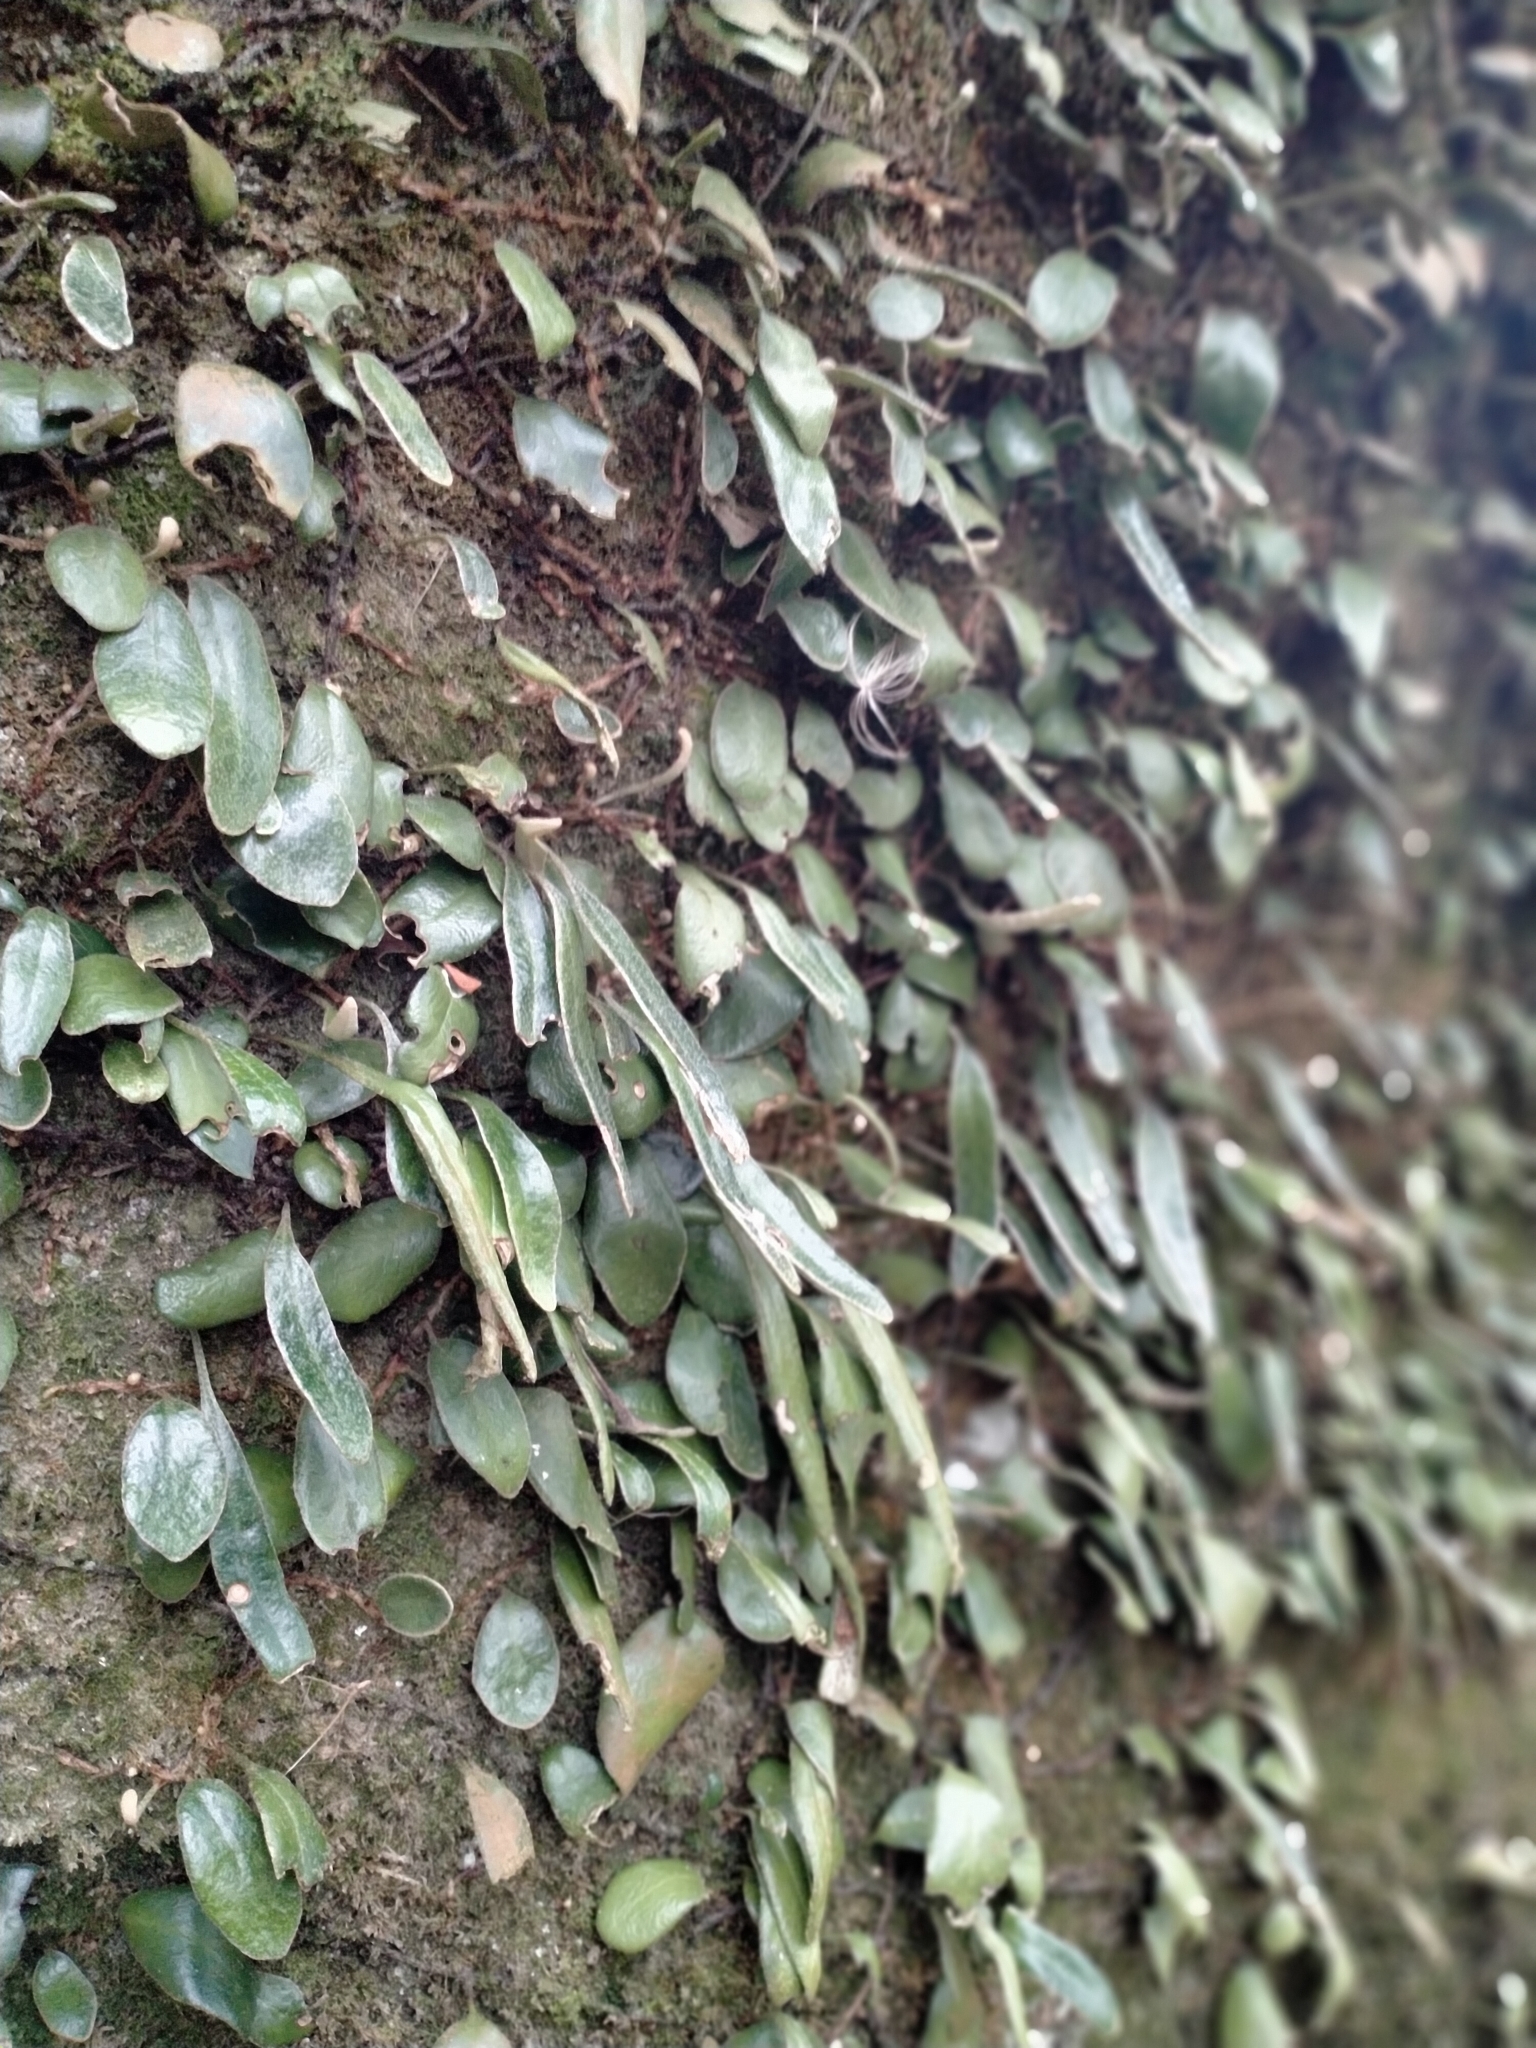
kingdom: Plantae
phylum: Tracheophyta
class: Polypodiopsida
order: Polypodiales
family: Polypodiaceae
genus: Pyrrosia
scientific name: Pyrrosia eleagnifolia
